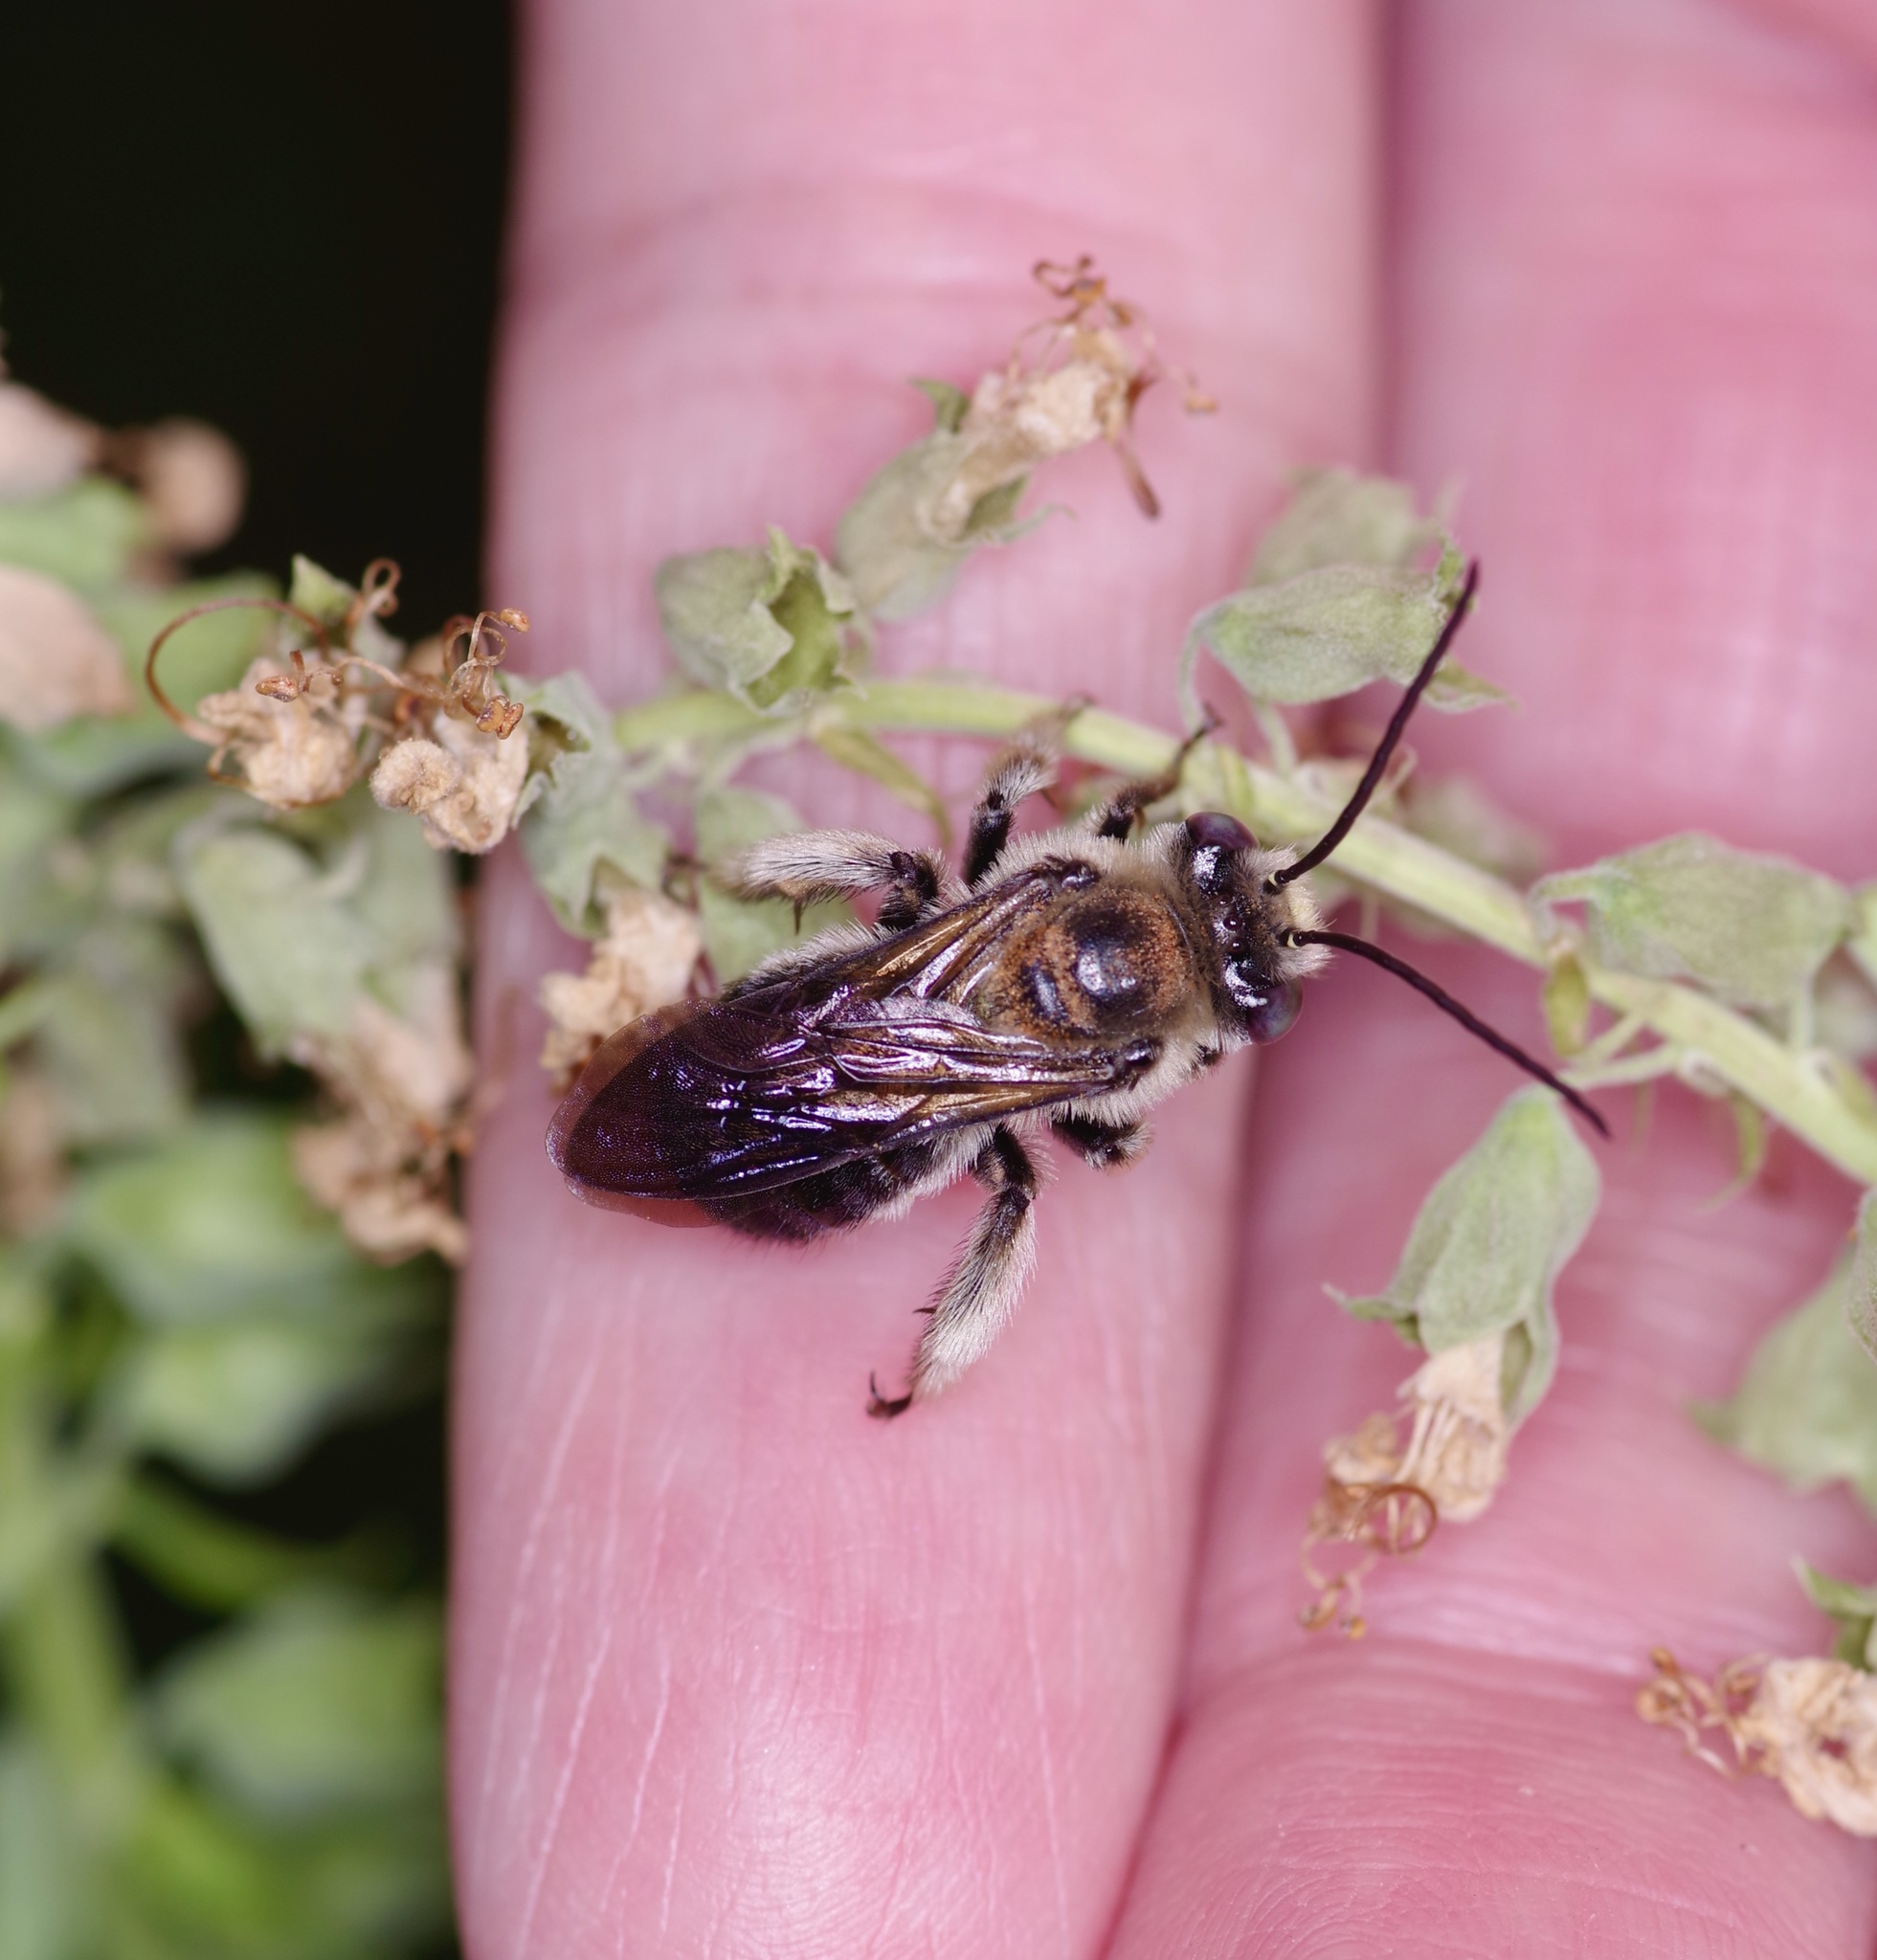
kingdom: Animalia
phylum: Arthropoda
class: Insecta
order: Hymenoptera
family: Apidae
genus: Melissodes
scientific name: Melissodes bimaculatus
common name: Two-spotted long-horned bee
